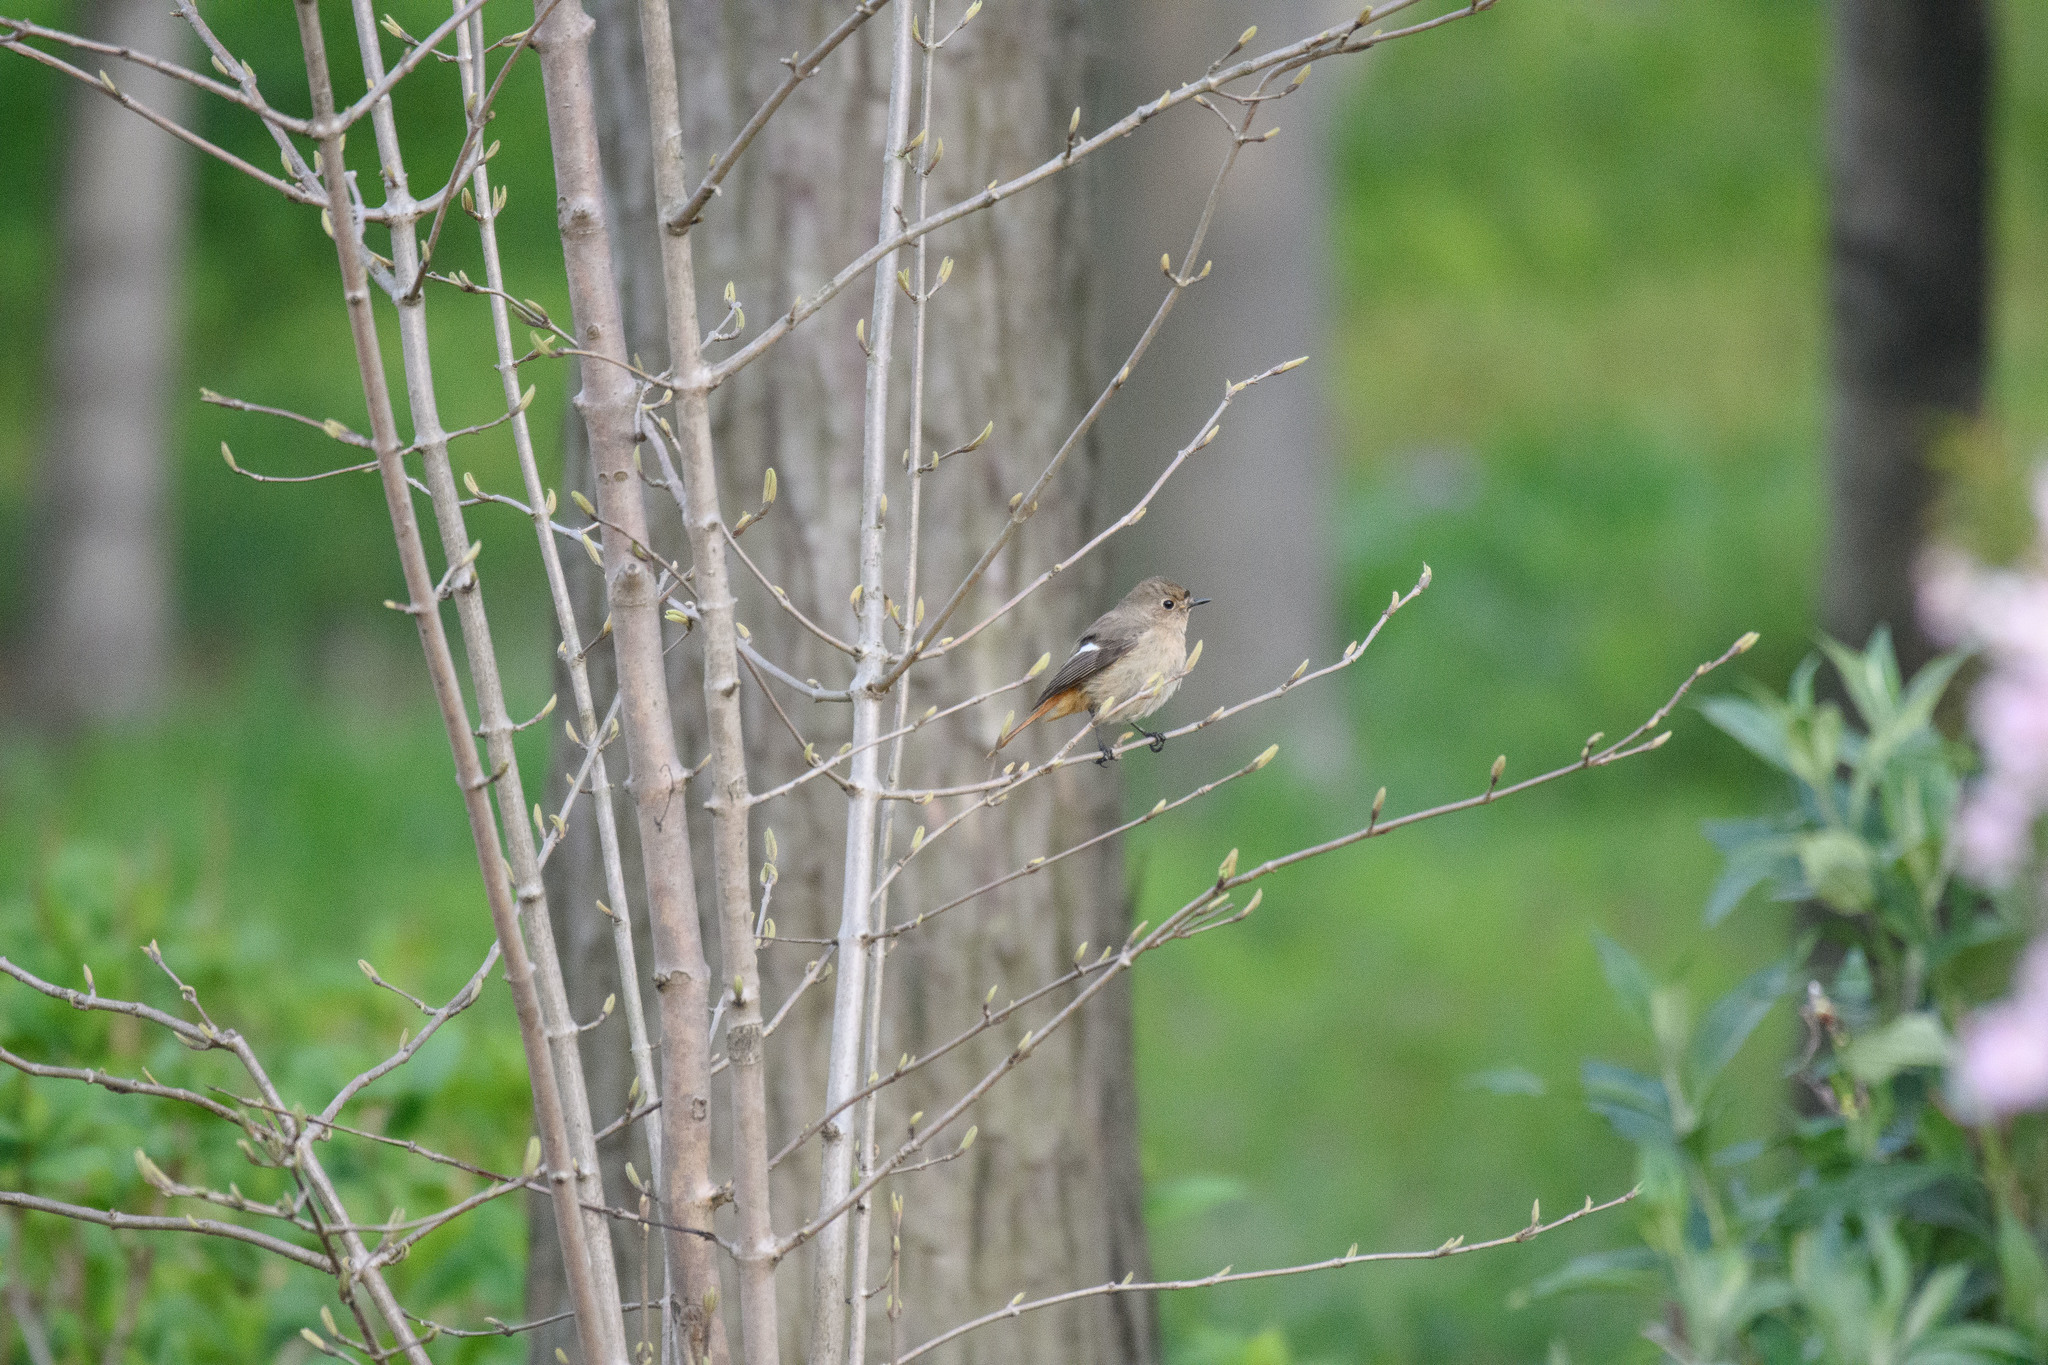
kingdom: Animalia
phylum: Chordata
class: Aves
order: Passeriformes
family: Muscicapidae
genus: Phoenicurus
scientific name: Phoenicurus auroreus
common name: Daurian redstart
